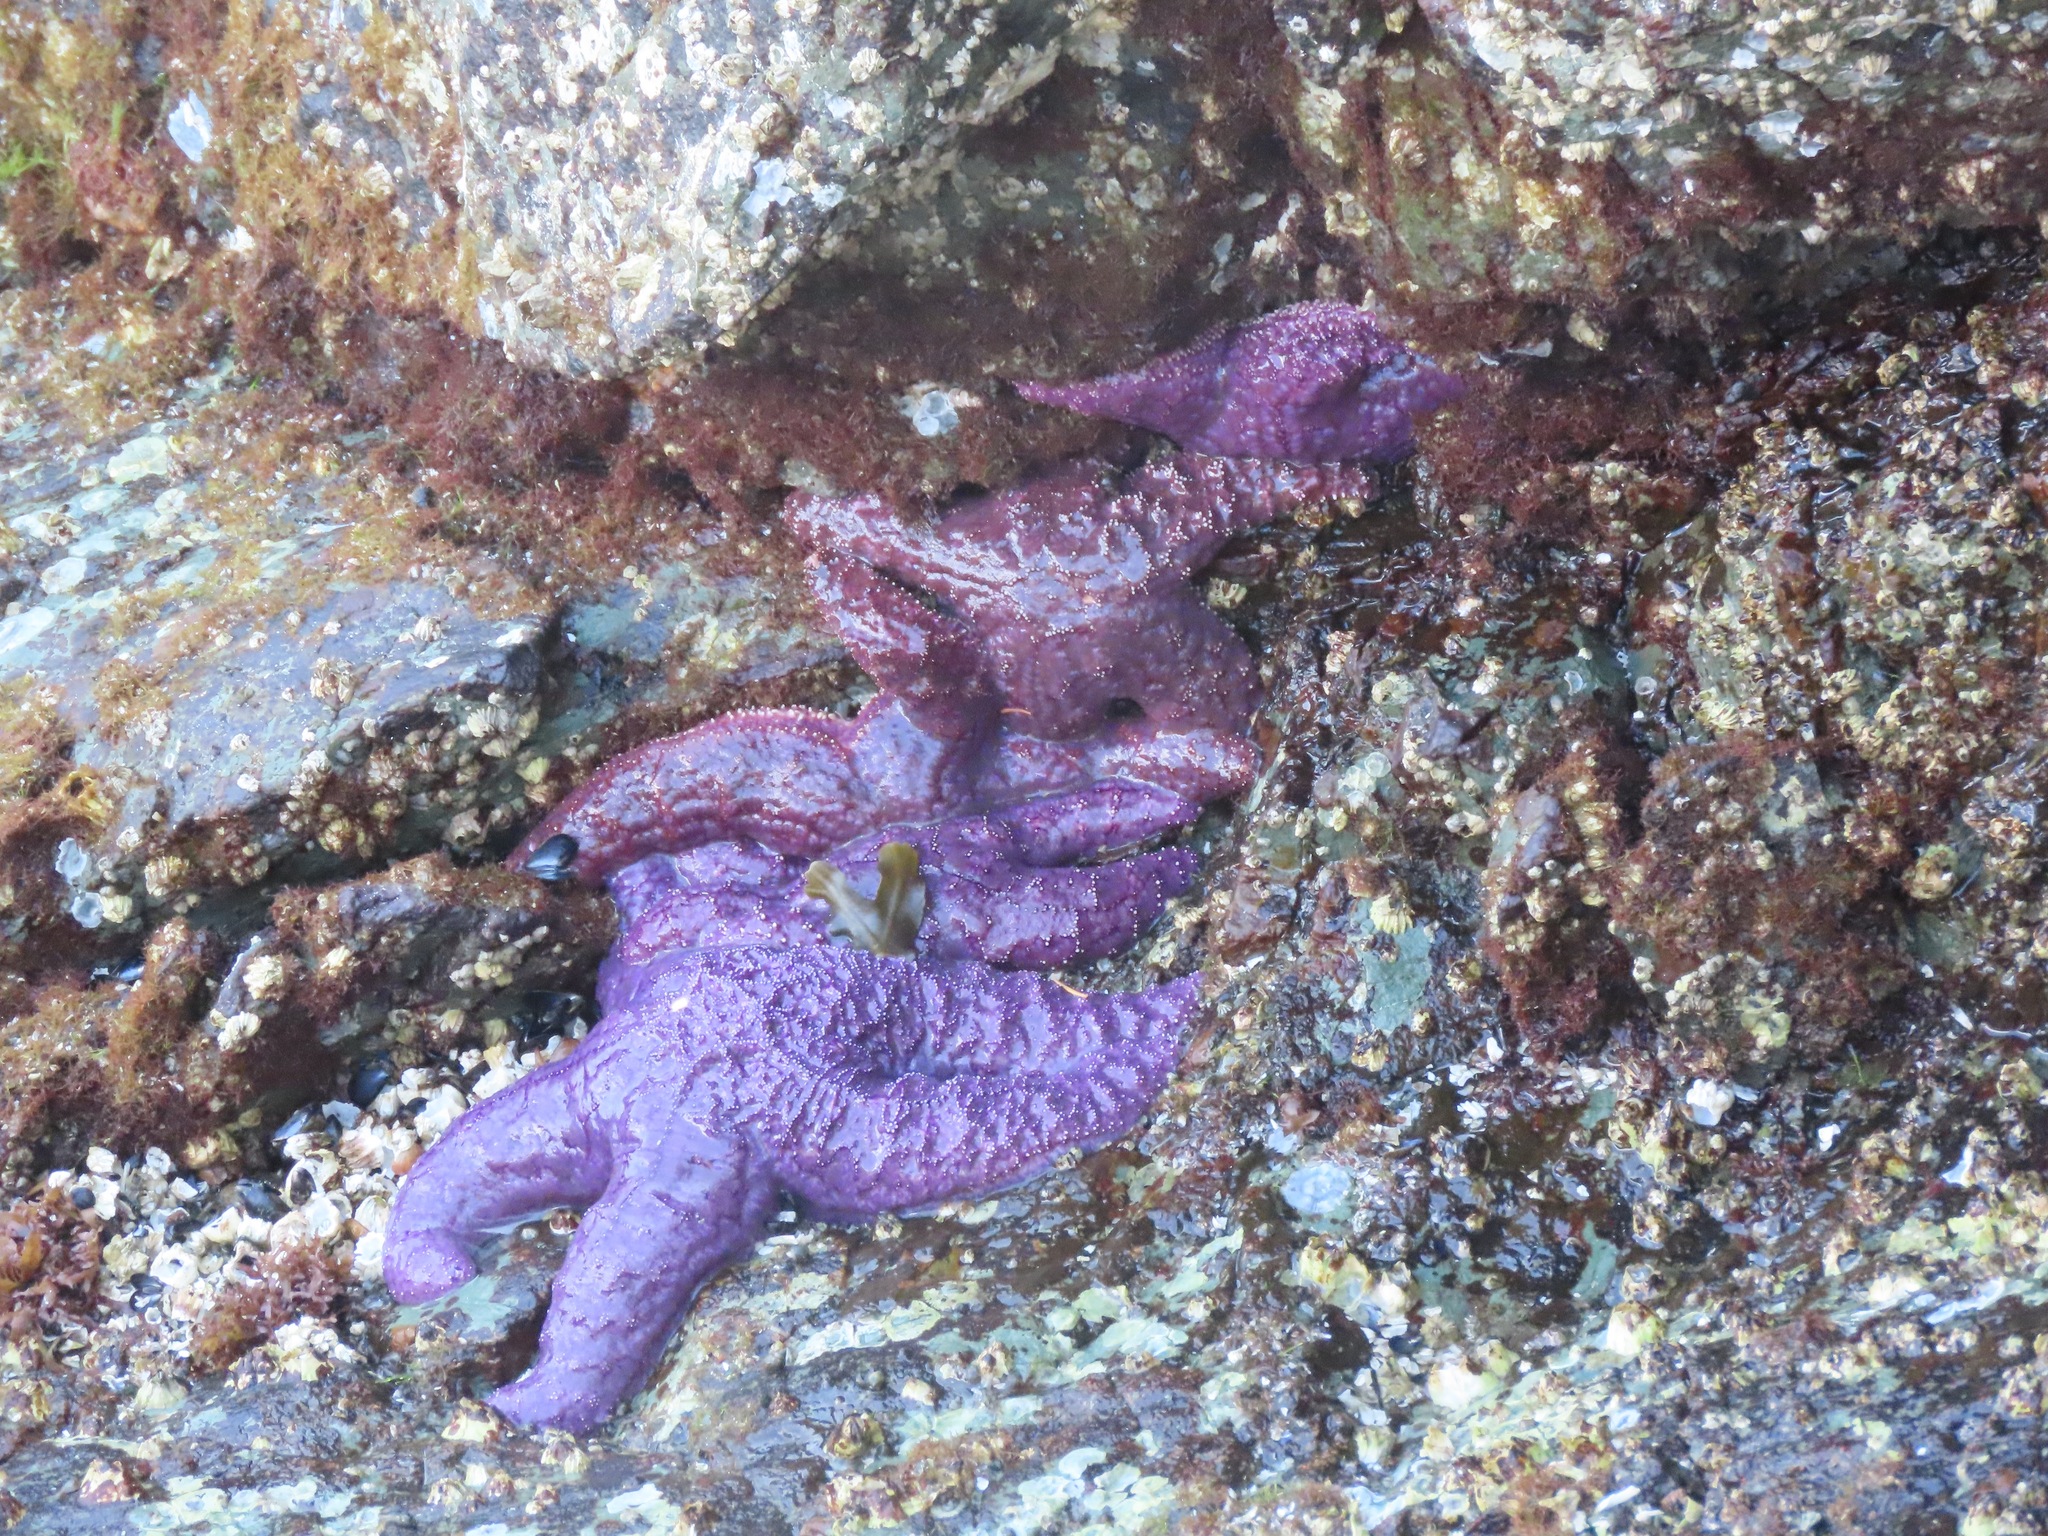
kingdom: Animalia
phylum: Echinodermata
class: Asteroidea
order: Forcipulatida
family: Asteriidae
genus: Pisaster
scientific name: Pisaster ochraceus
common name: Ochre stars
